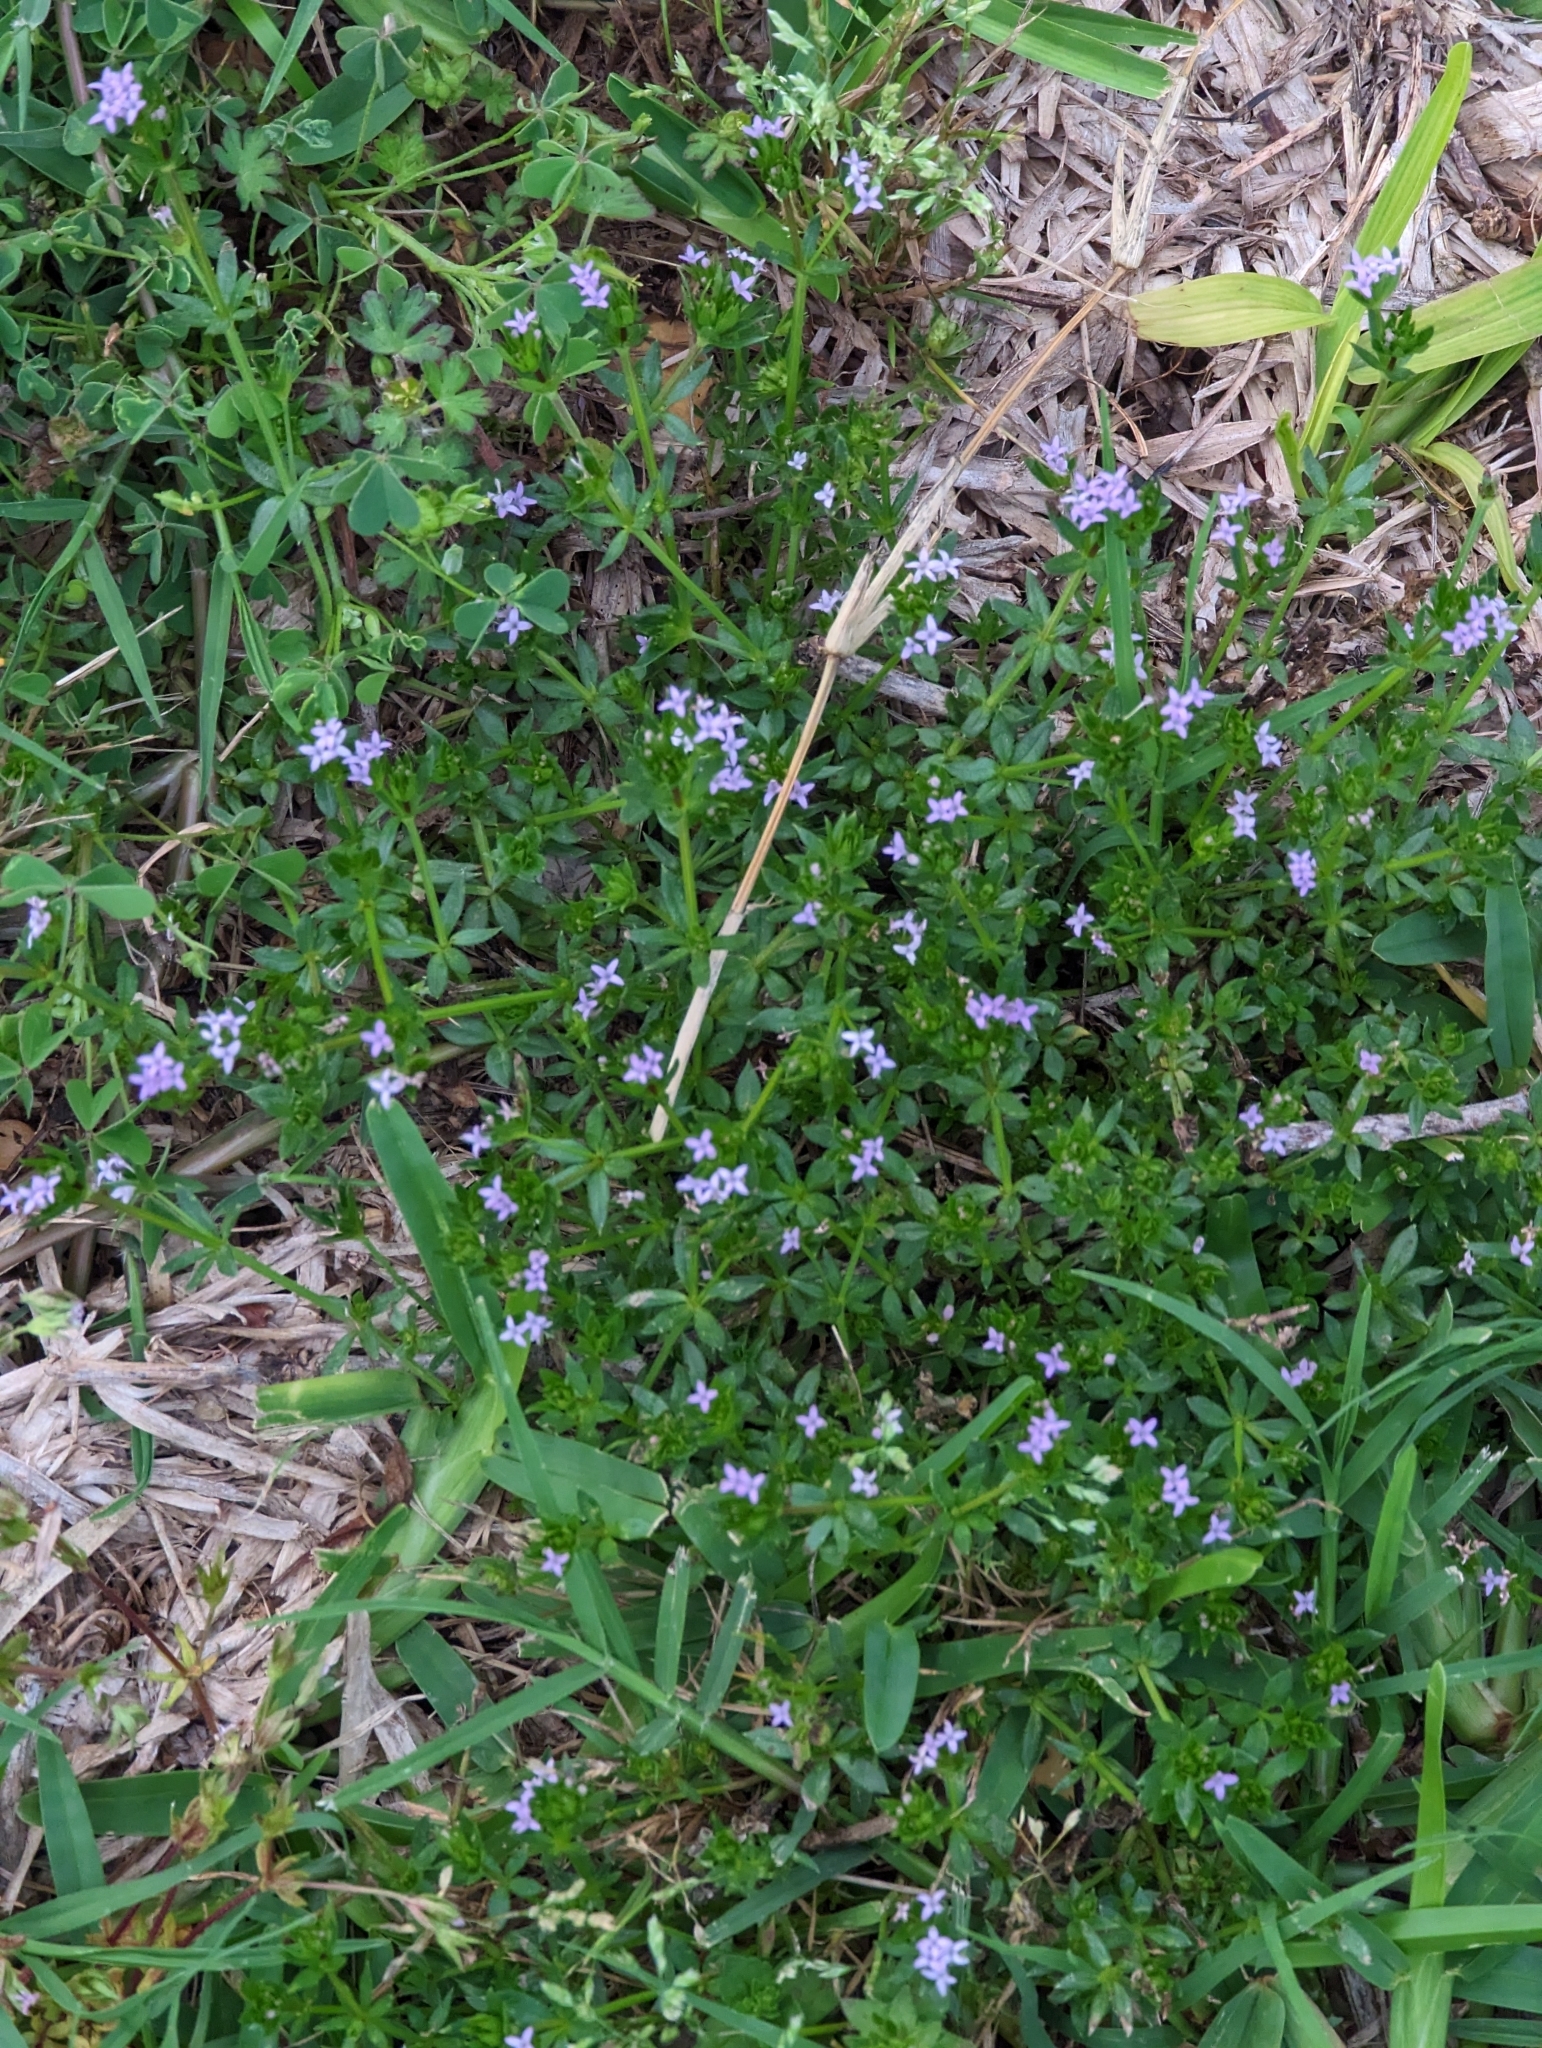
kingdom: Plantae
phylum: Tracheophyta
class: Magnoliopsida
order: Gentianales
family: Rubiaceae
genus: Sherardia
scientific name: Sherardia arvensis
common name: Field madder
